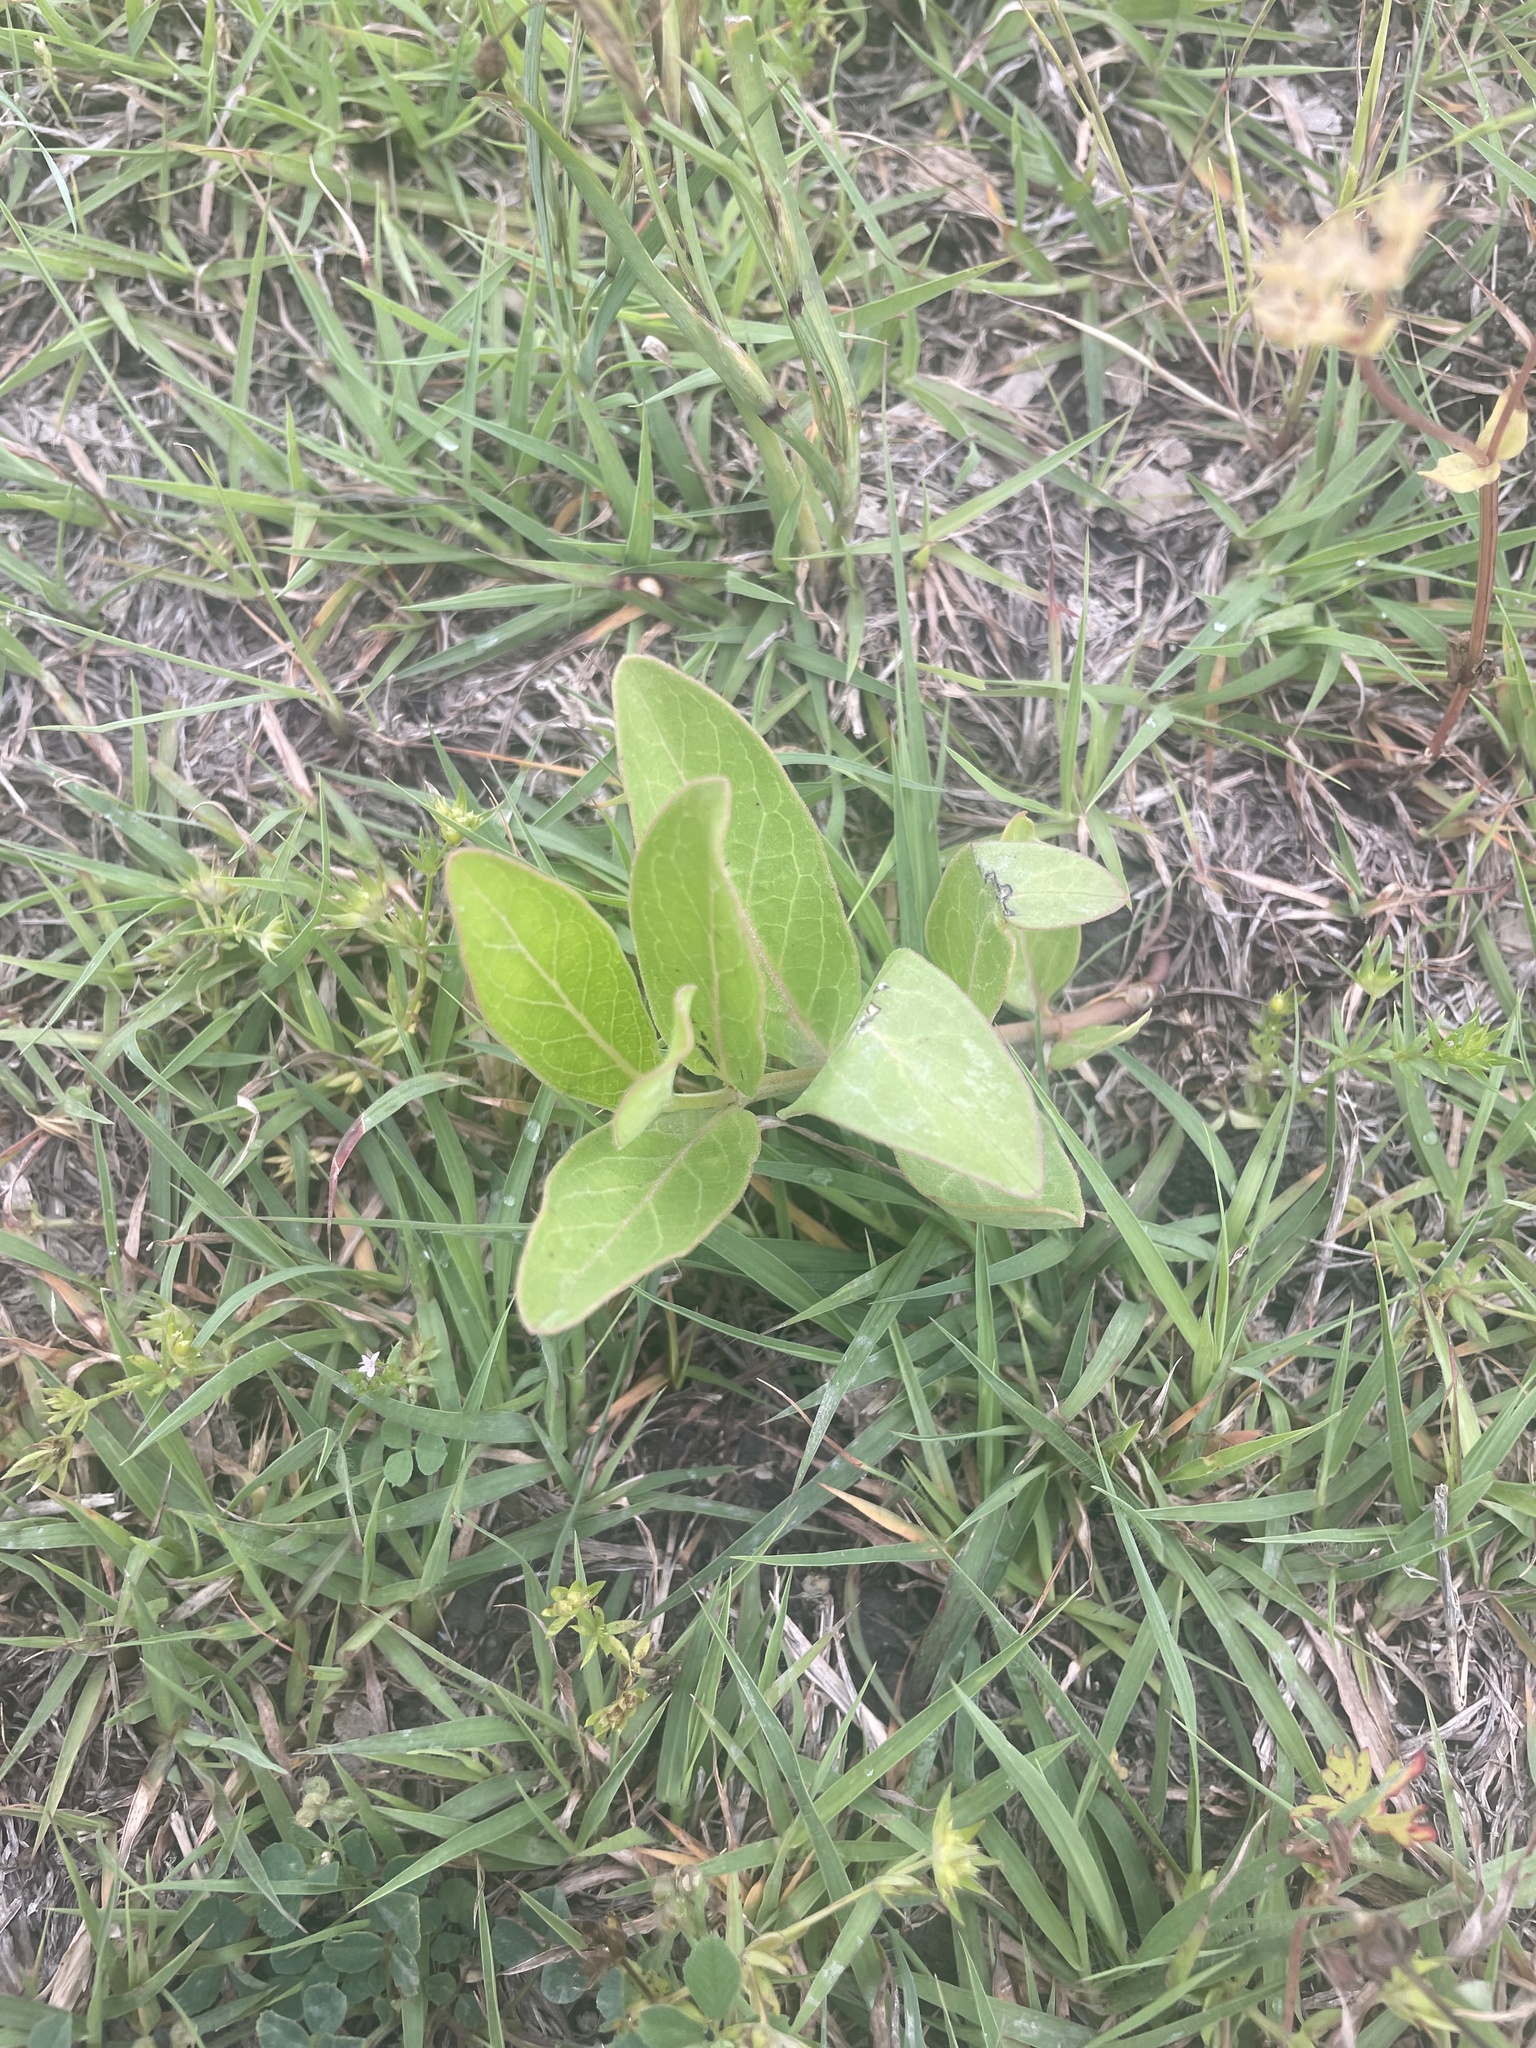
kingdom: Plantae
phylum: Tracheophyta
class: Magnoliopsida
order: Gentianales
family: Apocynaceae
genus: Asclepias
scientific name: Asclepias viridis
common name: Antelope-horns
